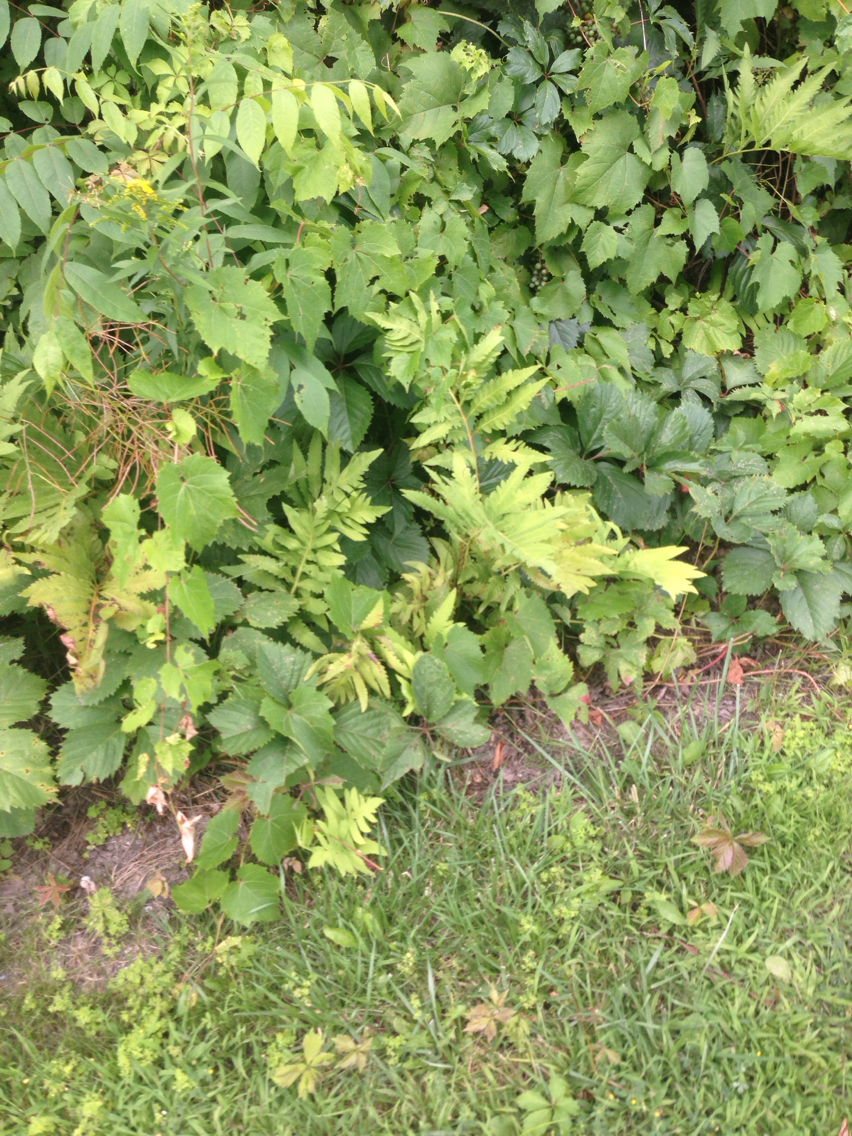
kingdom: Plantae
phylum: Tracheophyta
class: Polypodiopsida
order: Polypodiales
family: Onocleaceae
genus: Onoclea
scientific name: Onoclea sensibilis
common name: Sensitive fern
